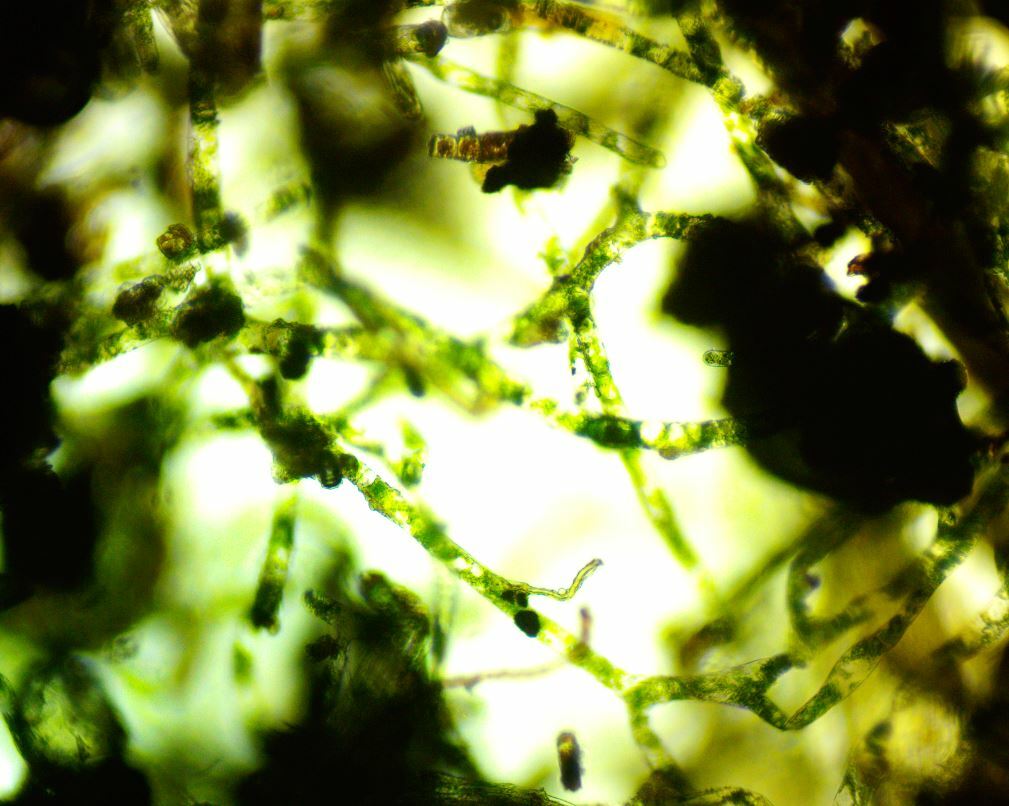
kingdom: Plantae
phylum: Tracheophyta
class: Polypodiopsida
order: Hymenophyllales
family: Hymenophyllaceae
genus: Crepidomanes
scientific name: Crepidomanes intricatum
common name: Weft fern
